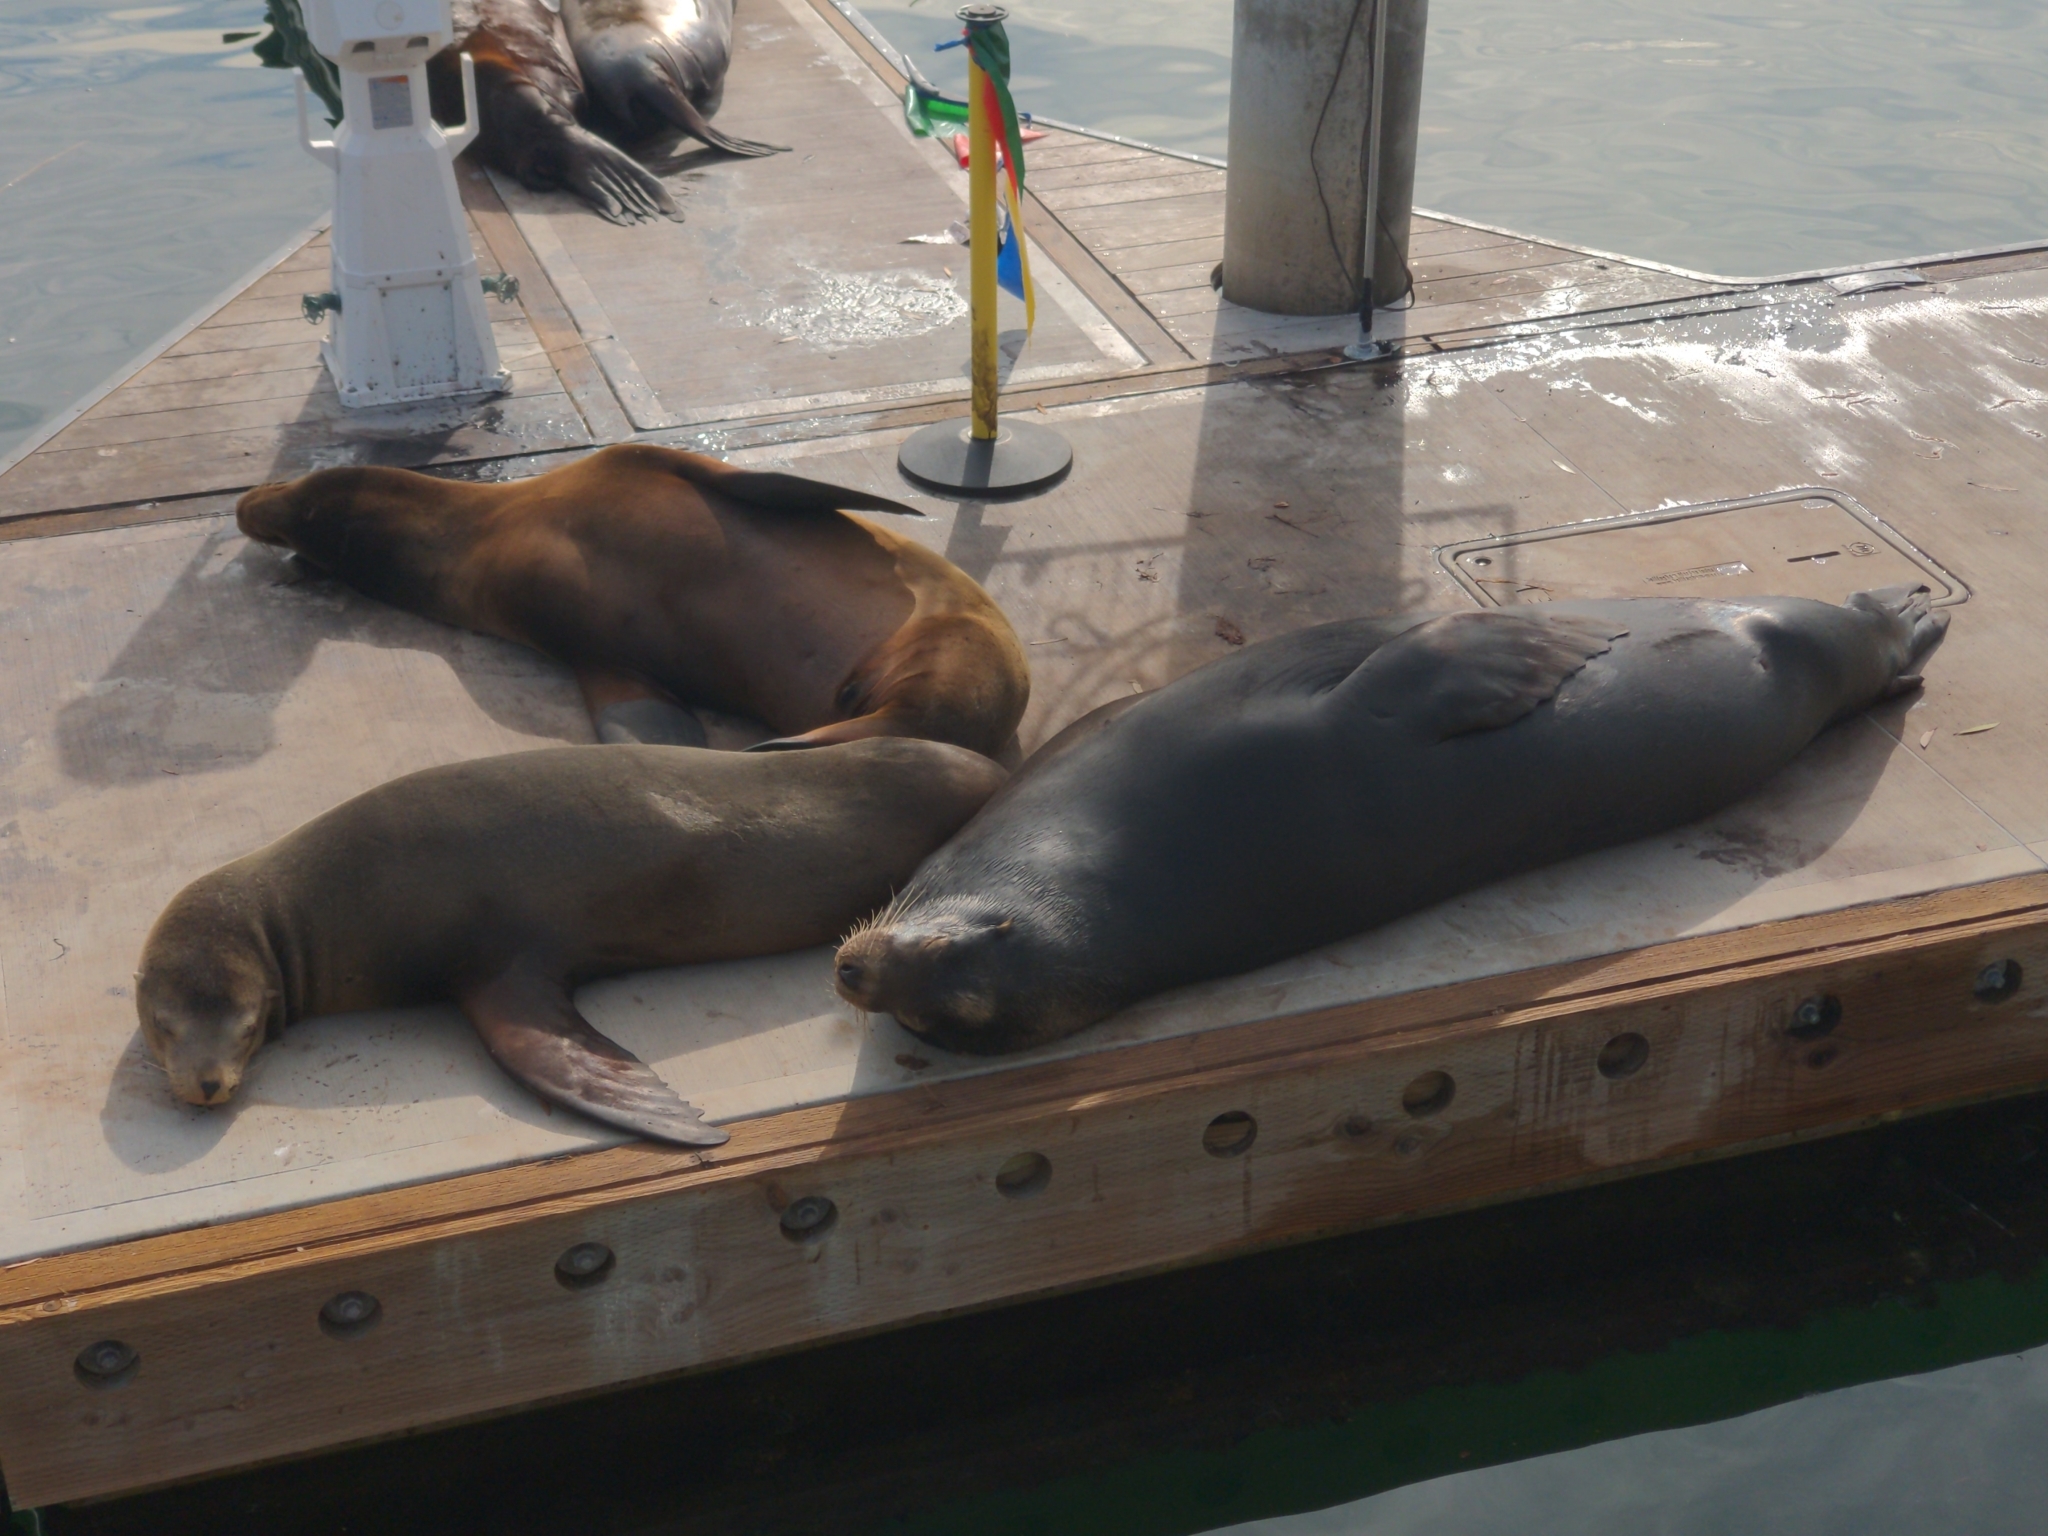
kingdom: Animalia
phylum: Chordata
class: Mammalia
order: Carnivora
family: Otariidae
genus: Zalophus
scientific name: Zalophus californianus
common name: California sea lion
